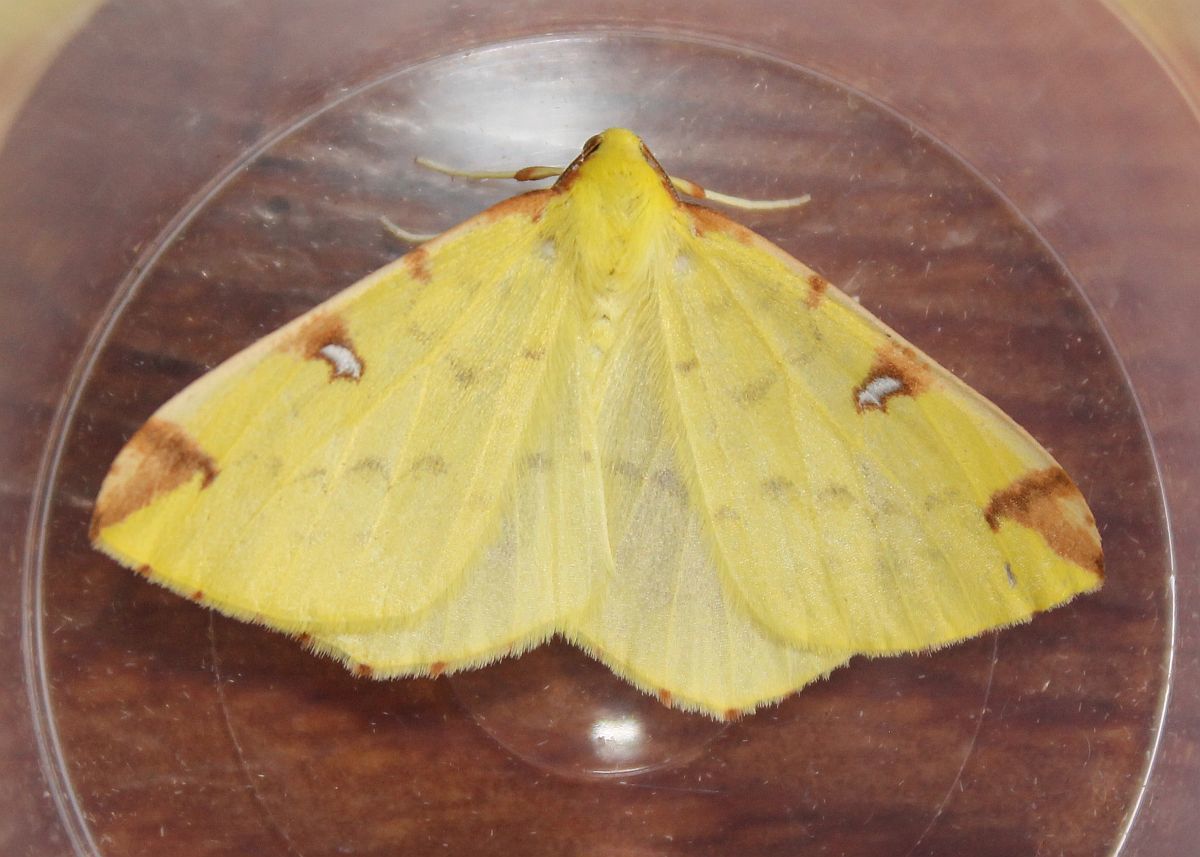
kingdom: Animalia
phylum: Arthropoda
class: Insecta
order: Lepidoptera
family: Geometridae
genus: Opisthograptis
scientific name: Opisthograptis luteolata
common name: Brimstone moth
